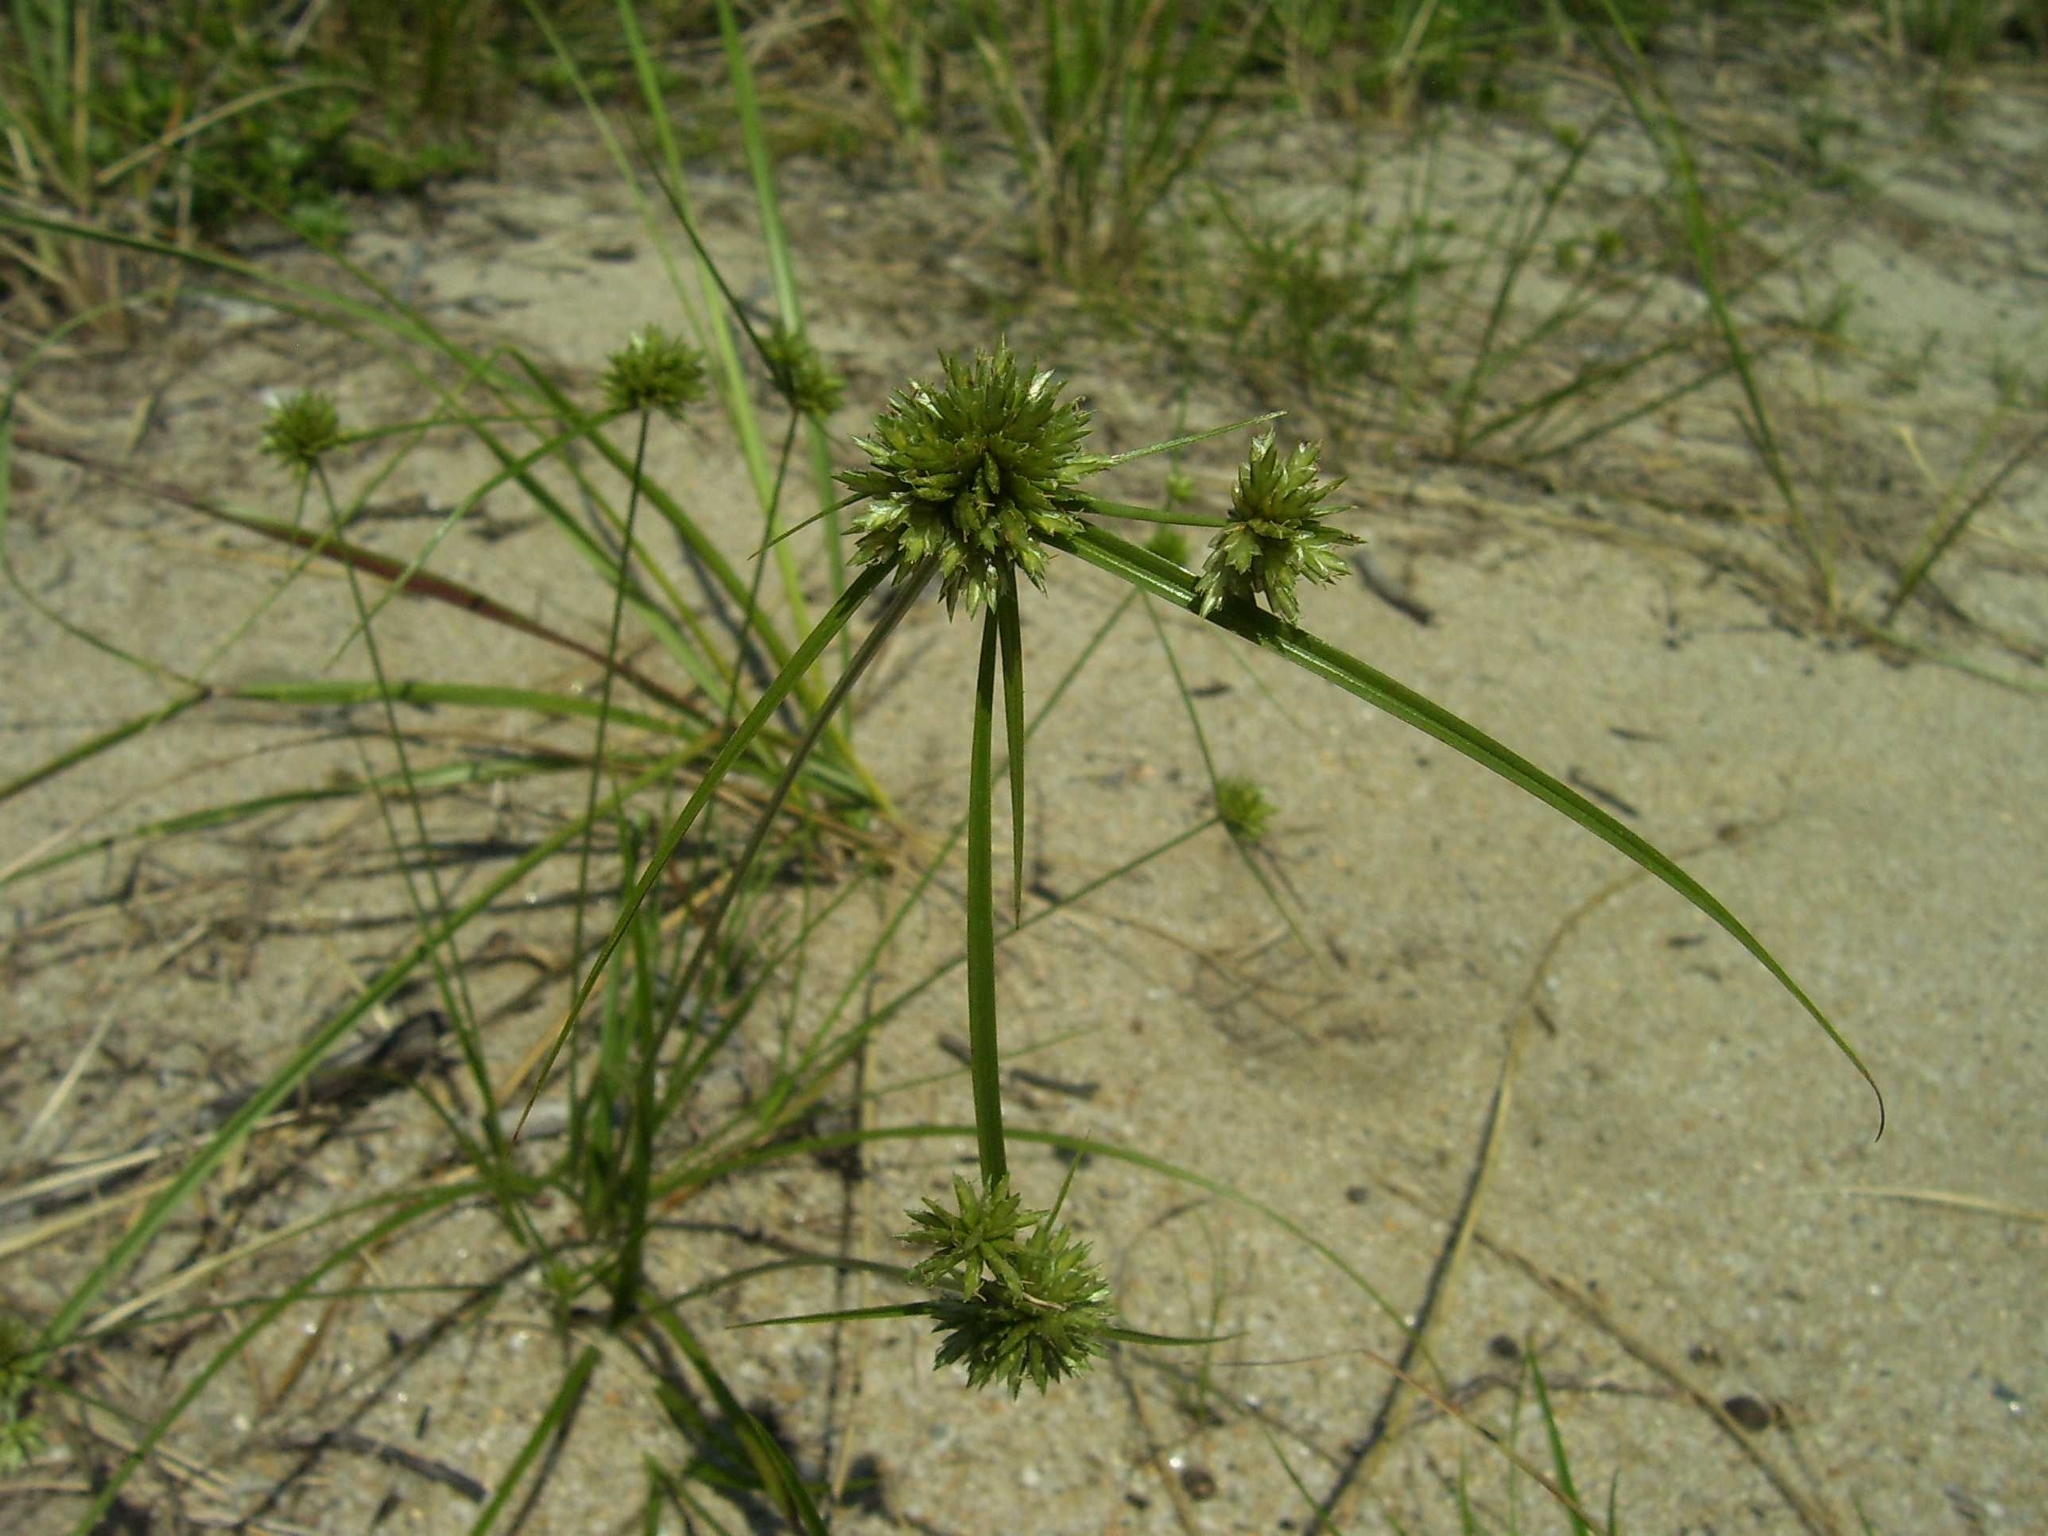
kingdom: Plantae
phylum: Tracheophyta
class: Liliopsida
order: Poales
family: Cyperaceae
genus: Cyperus
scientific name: Cyperus lupulinus
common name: Great plains flatsedge
